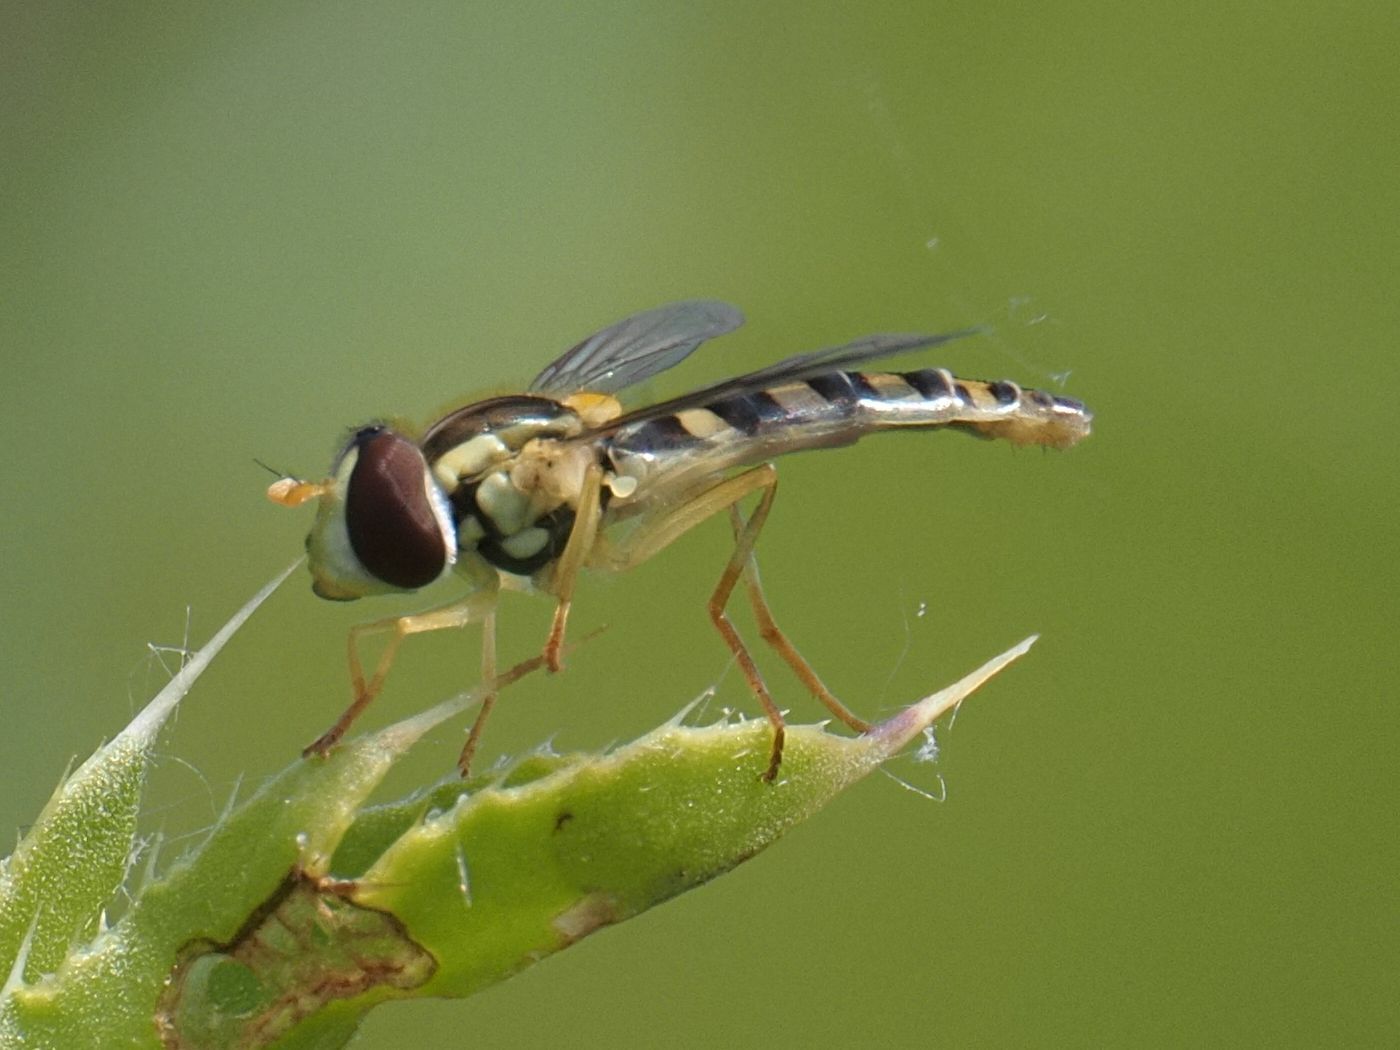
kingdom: Animalia
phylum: Arthropoda
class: Insecta
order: Diptera
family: Syrphidae
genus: Sphaerophoria
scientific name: Sphaerophoria
